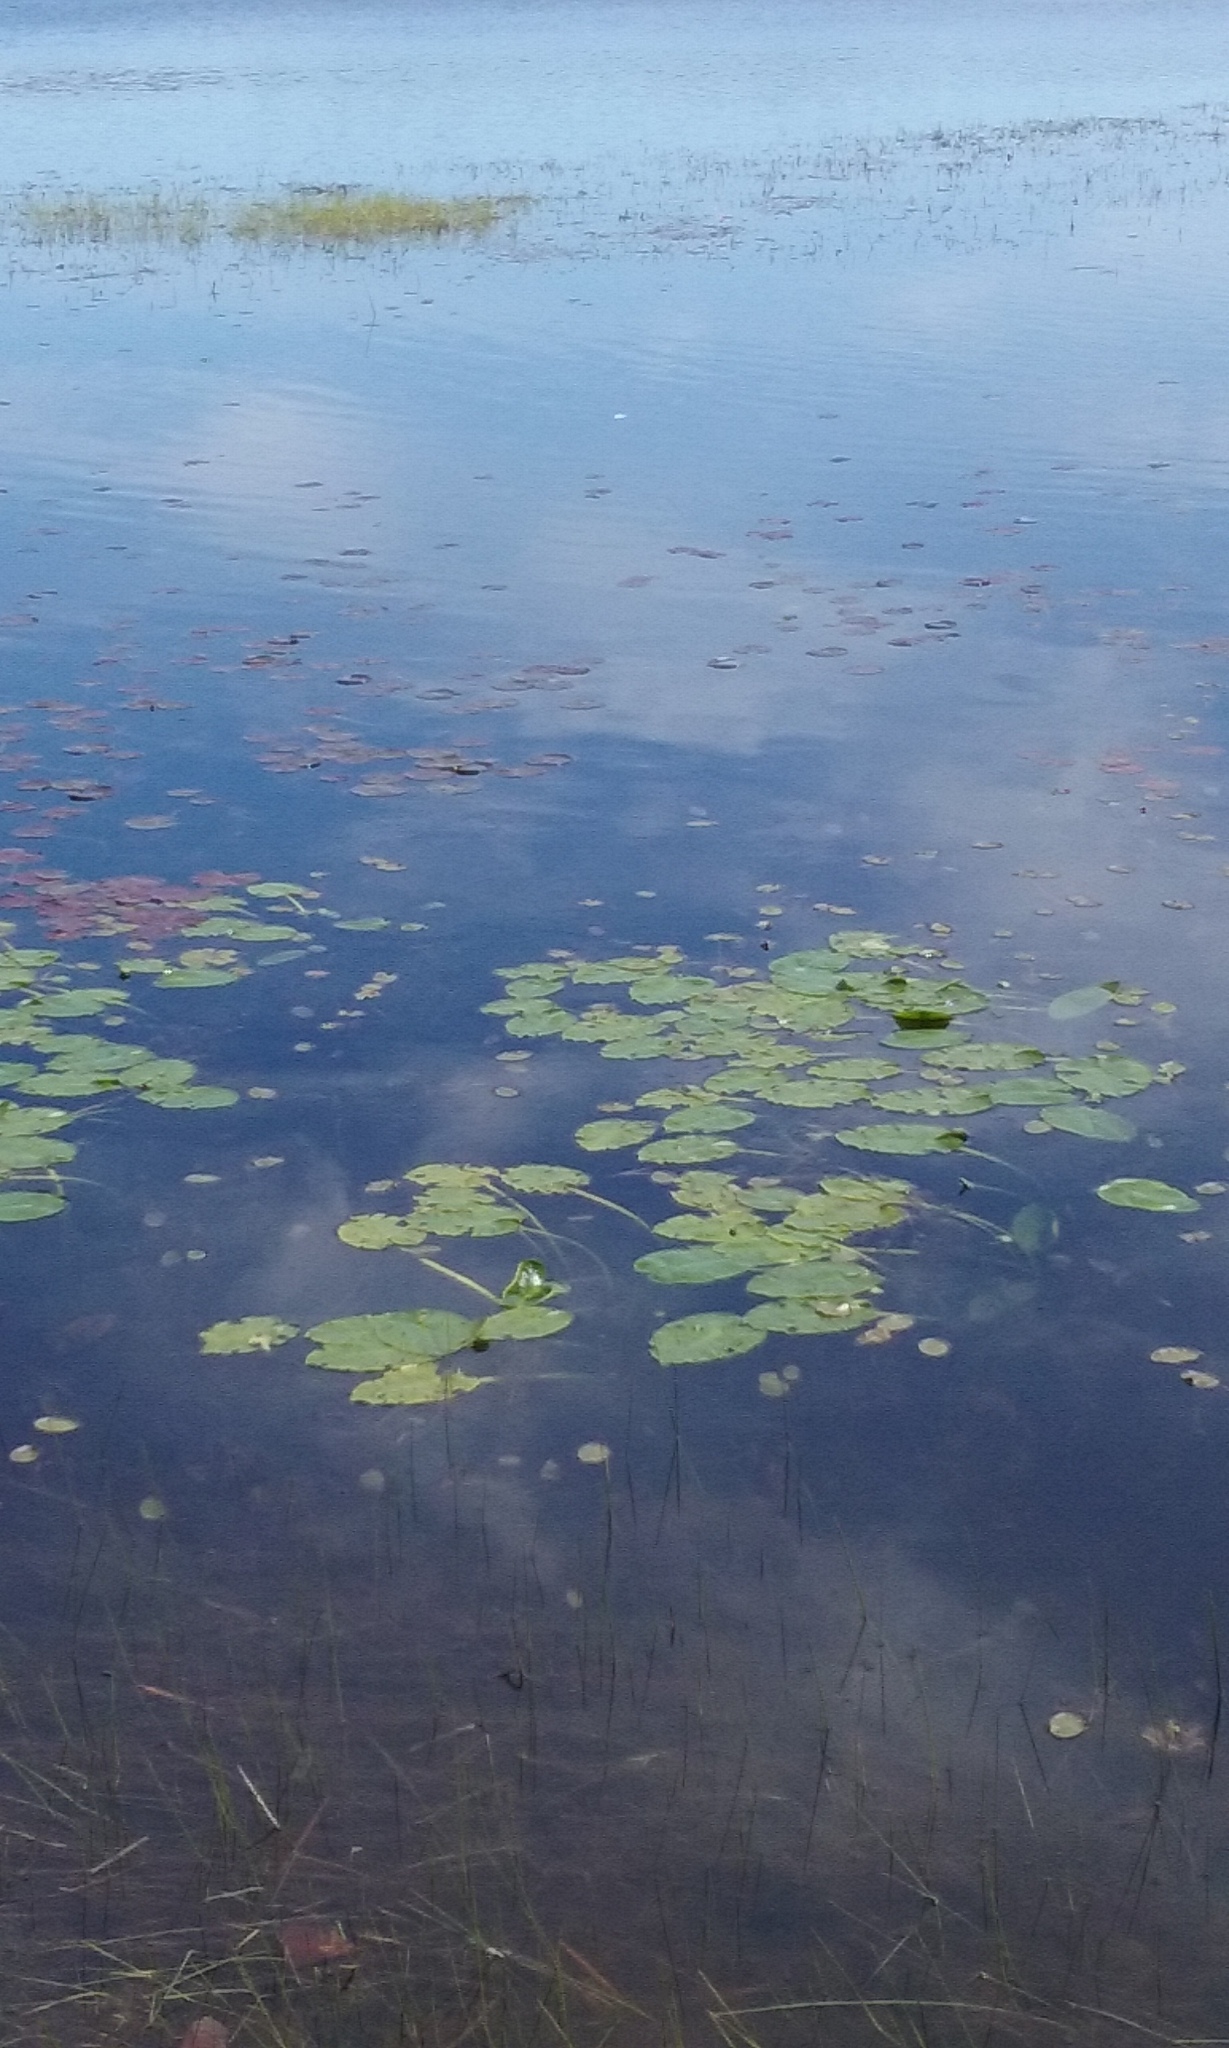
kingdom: Plantae
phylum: Tracheophyta
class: Magnoliopsida
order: Nymphaeales
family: Nymphaeaceae
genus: Nuphar
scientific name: Nuphar variegata
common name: Beaver-root
